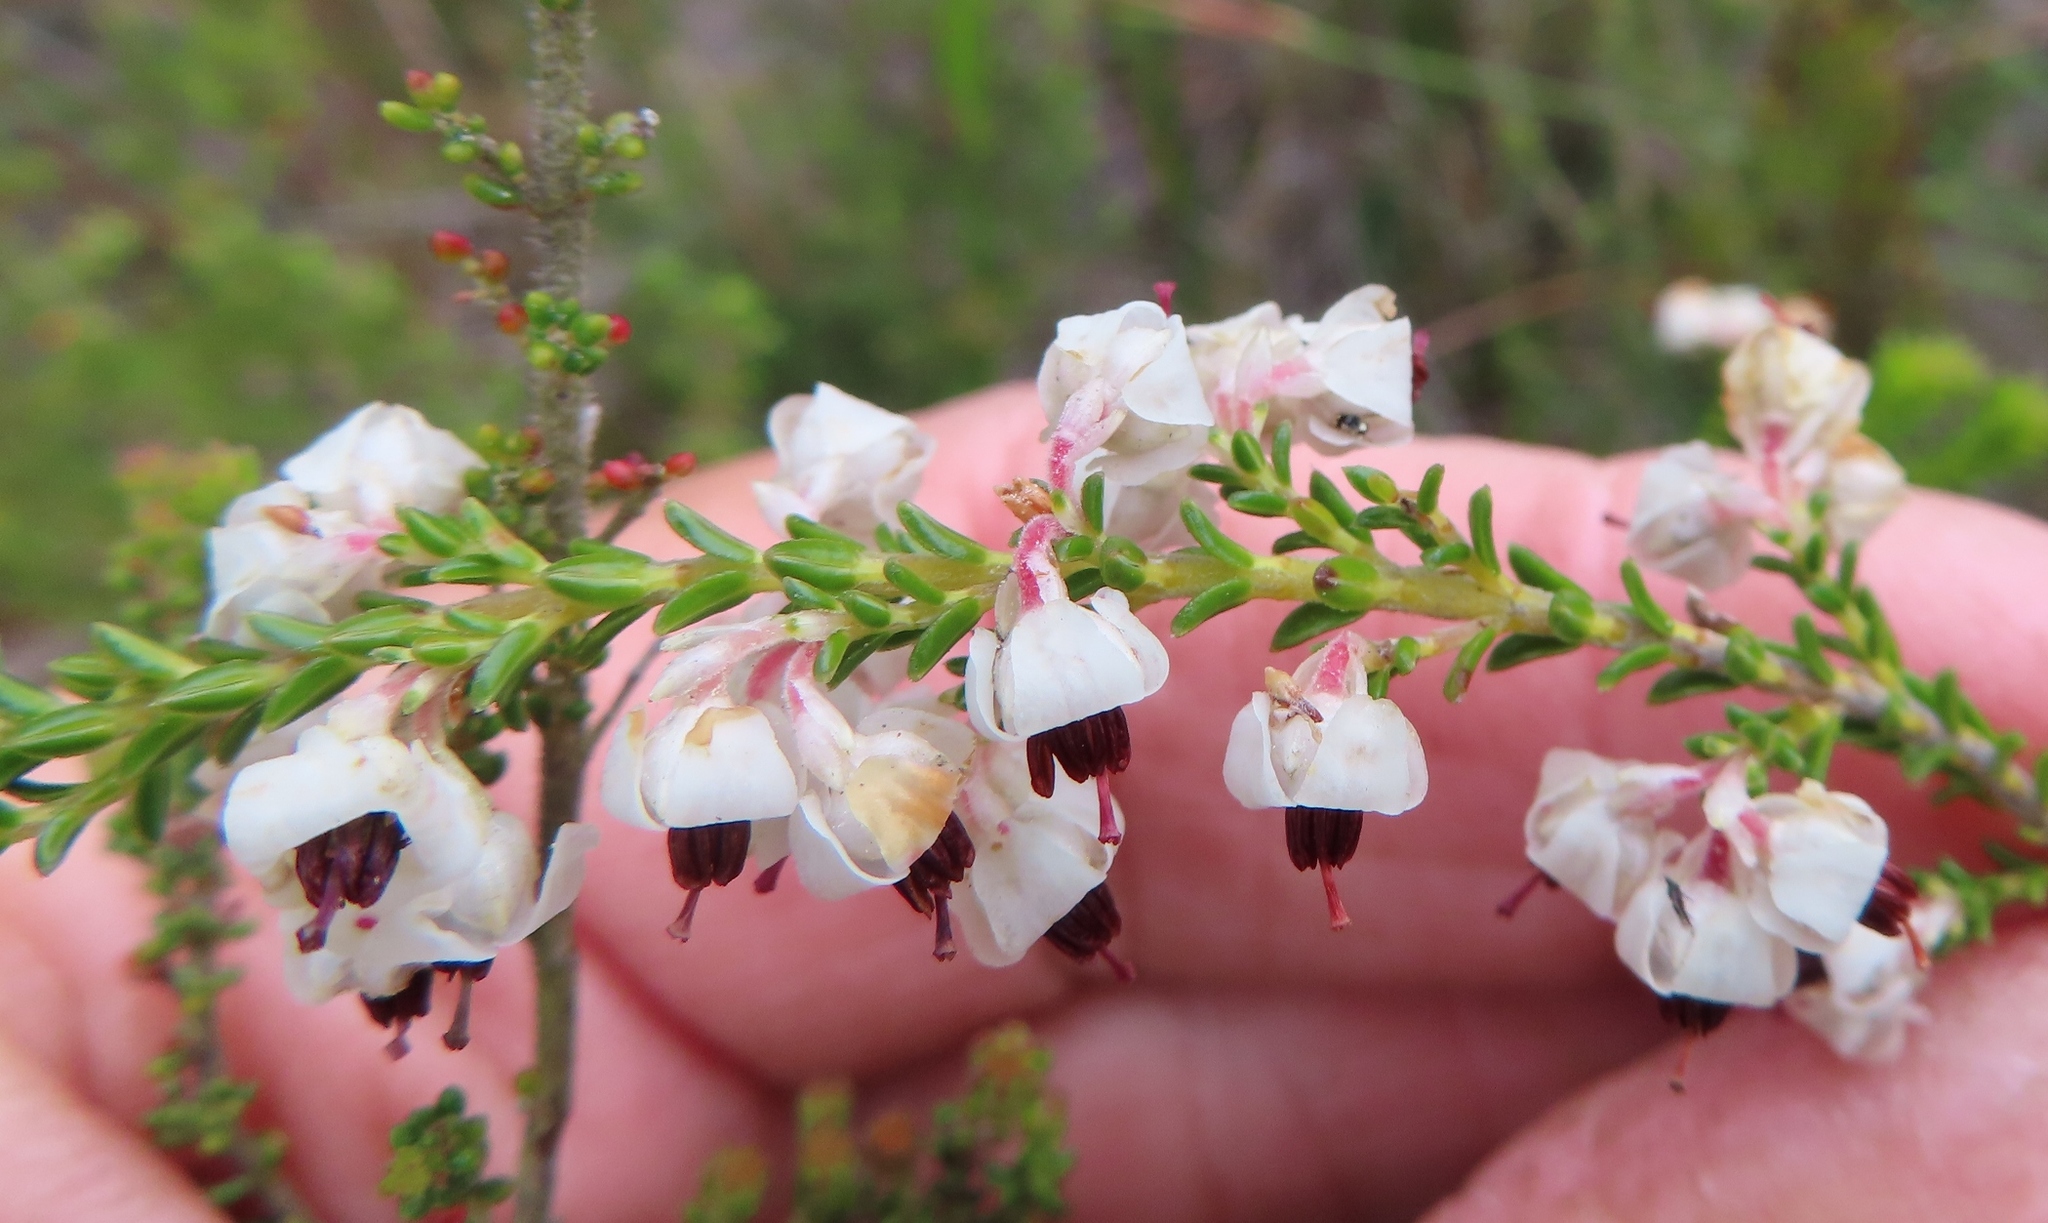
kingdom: Plantae
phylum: Tracheophyta
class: Magnoliopsida
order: Ericales
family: Ericaceae
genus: Erica
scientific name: Erica calycina
